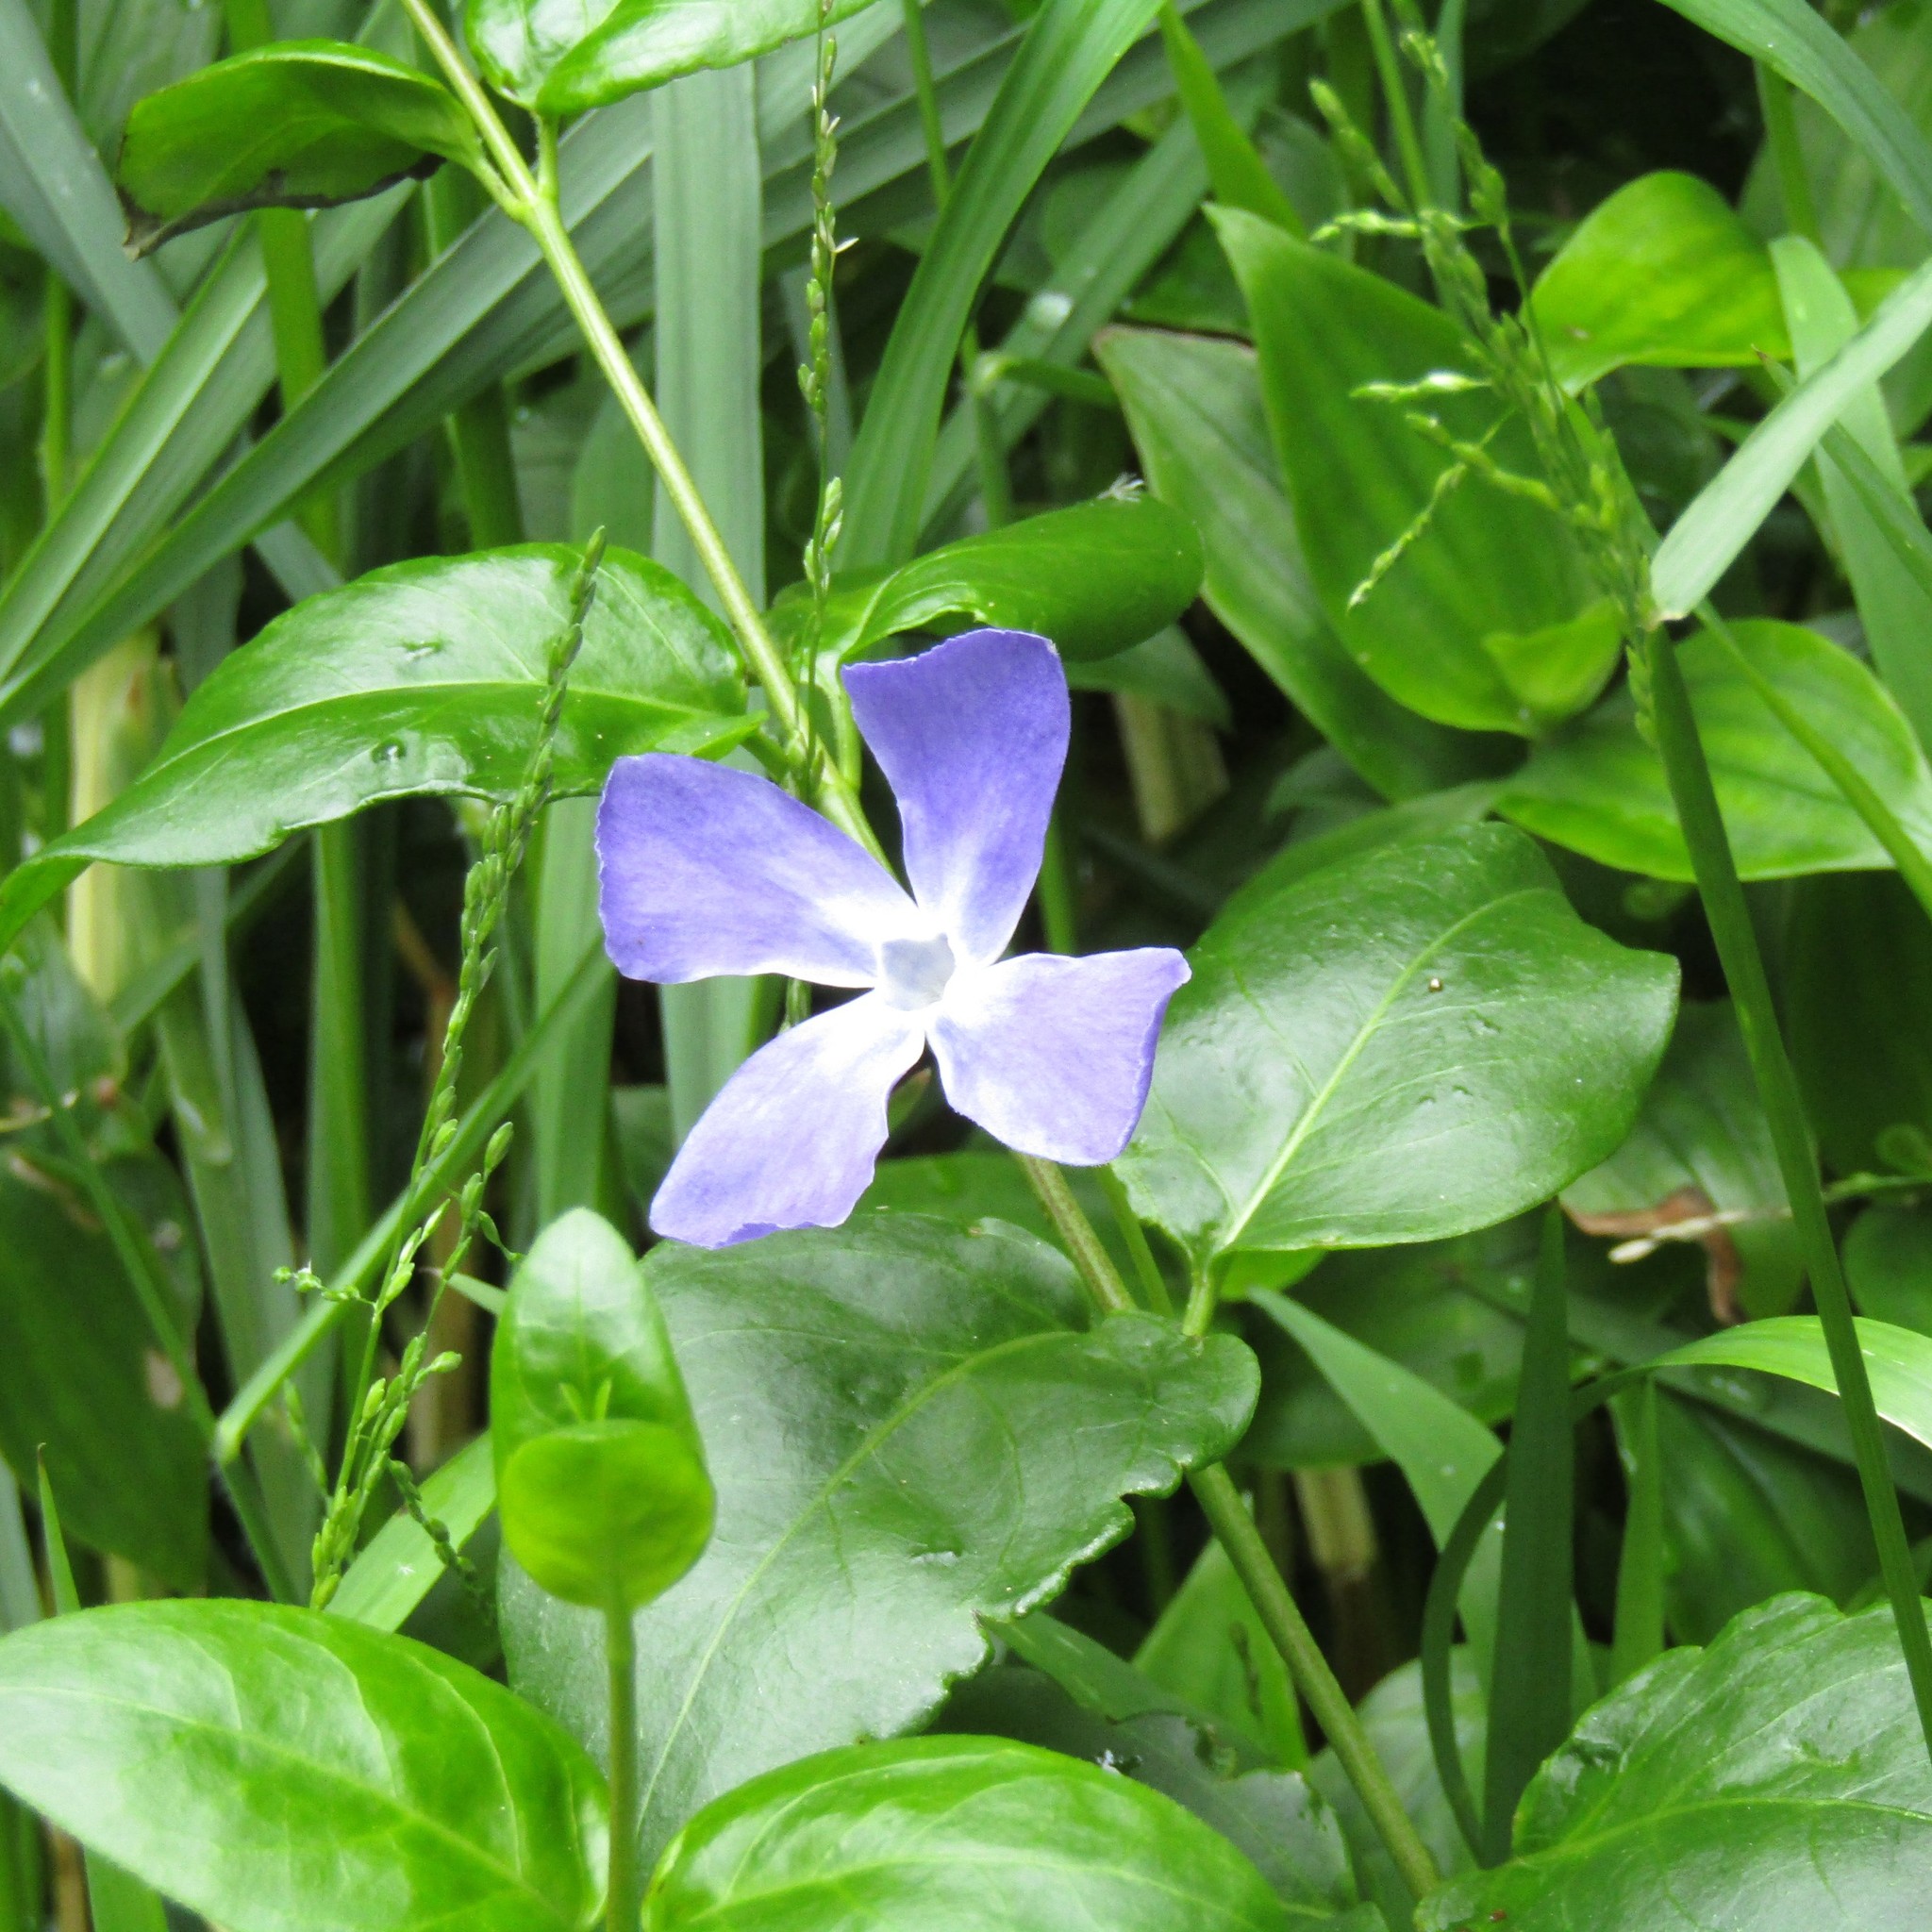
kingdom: Plantae
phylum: Tracheophyta
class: Magnoliopsida
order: Gentianales
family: Apocynaceae
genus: Vinca
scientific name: Vinca major
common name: Greater periwinkle
